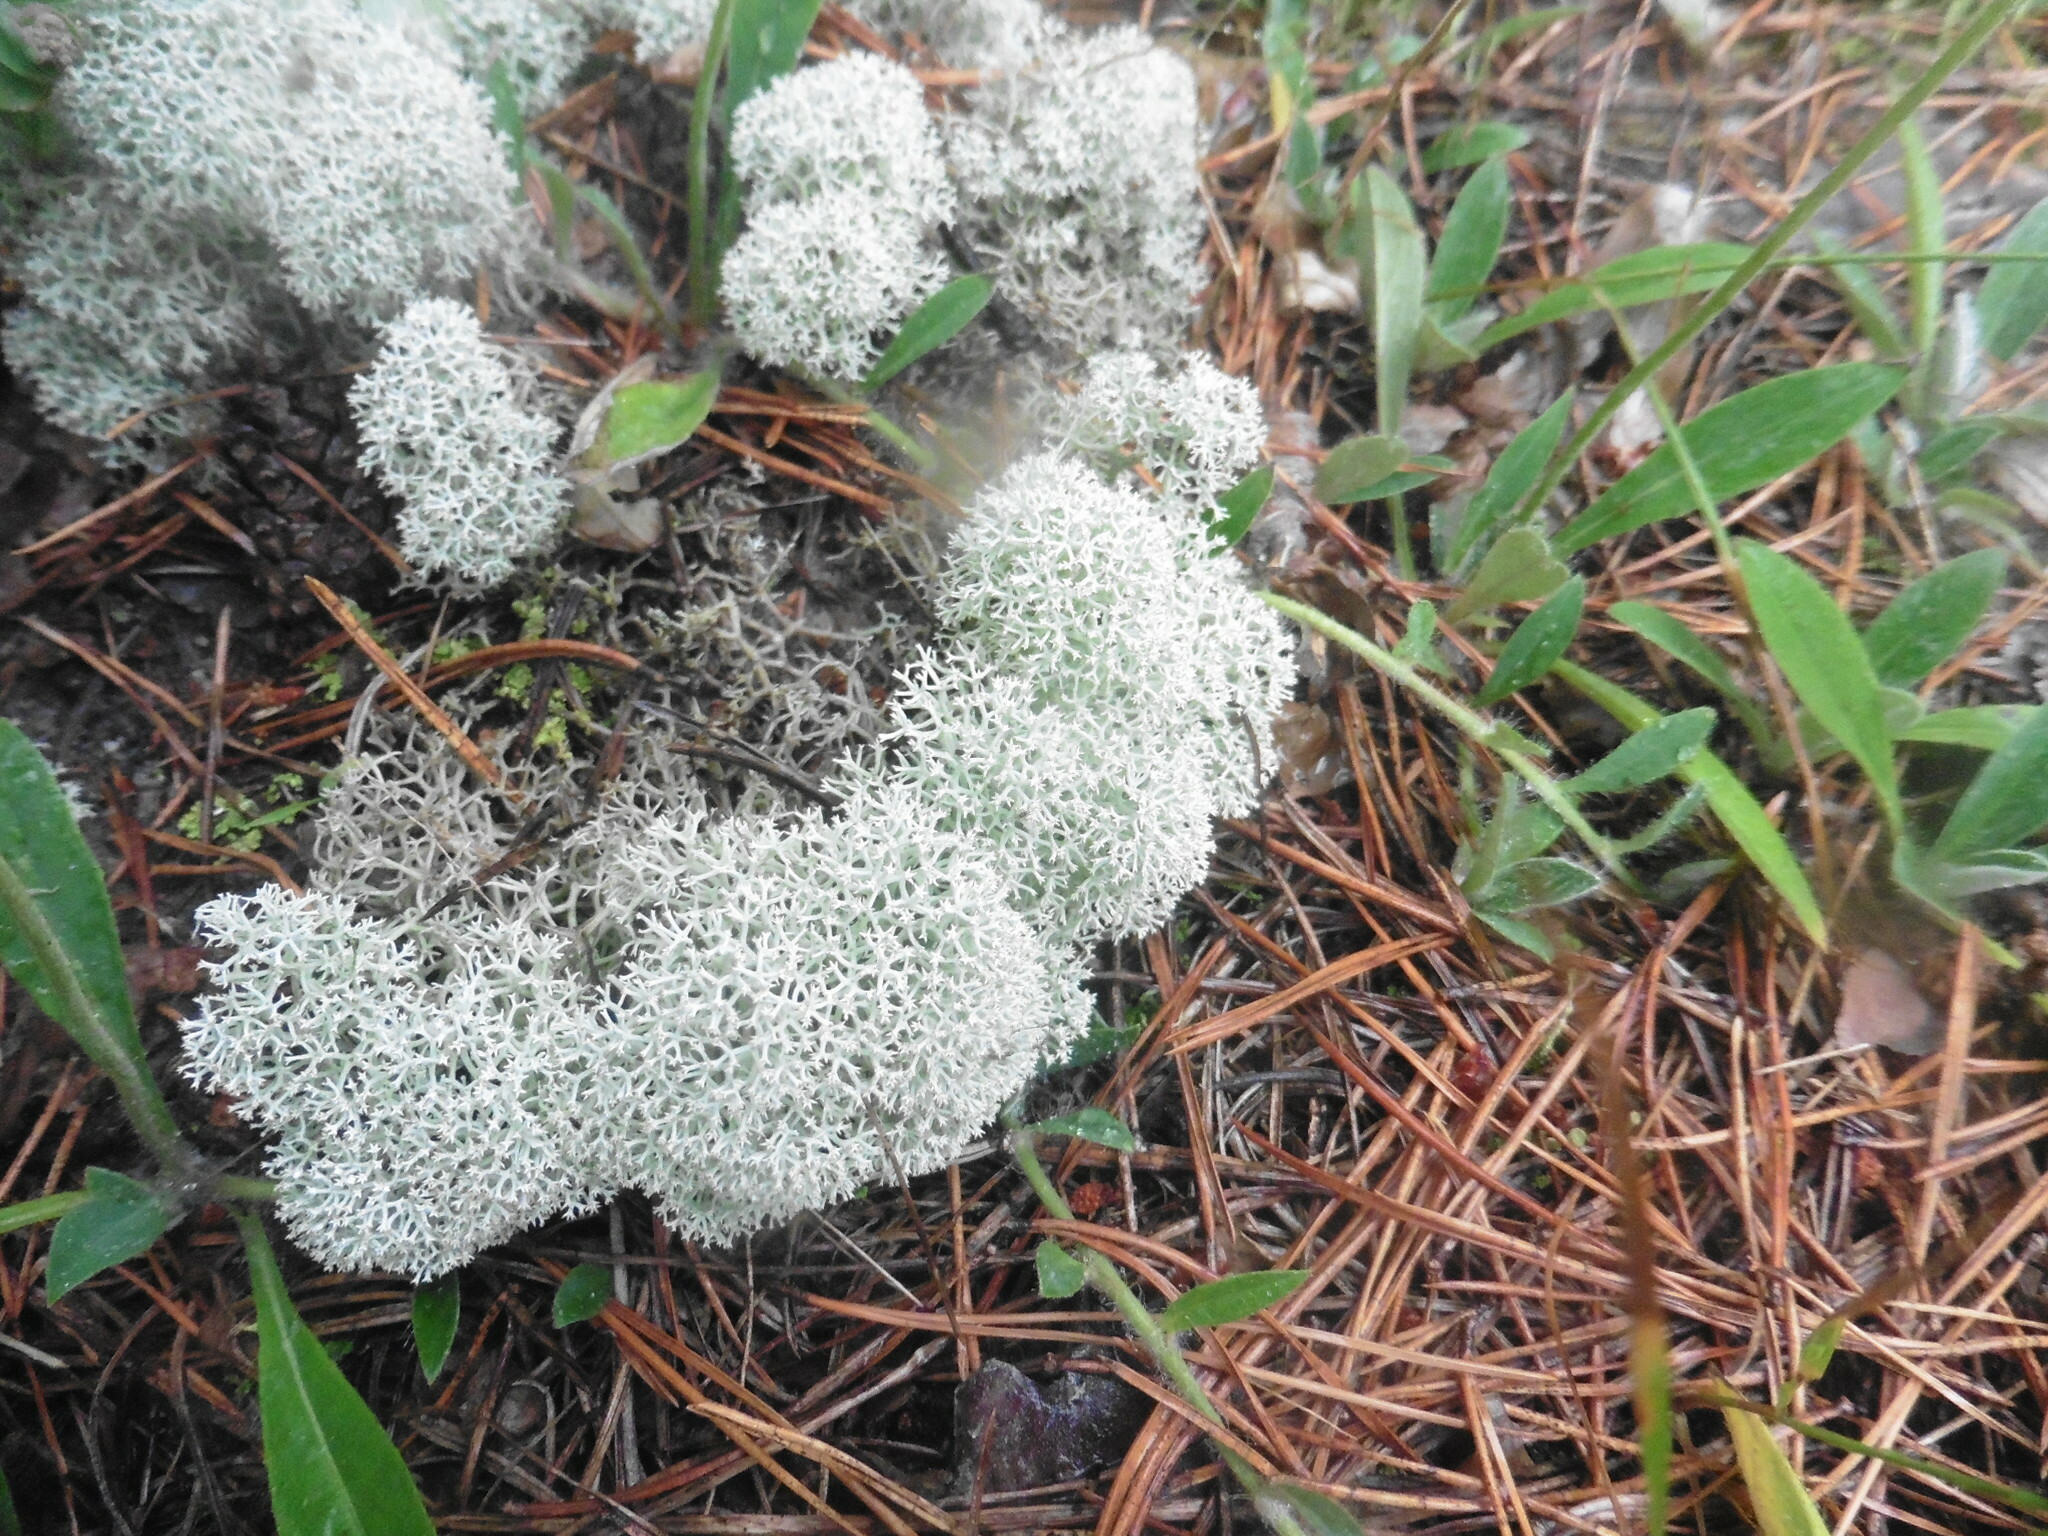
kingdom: Fungi
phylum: Ascomycota
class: Lecanoromycetes
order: Lecanorales
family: Cladoniaceae
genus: Cladonia
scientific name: Cladonia stellaris
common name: Star-tipped reindeer lichen
